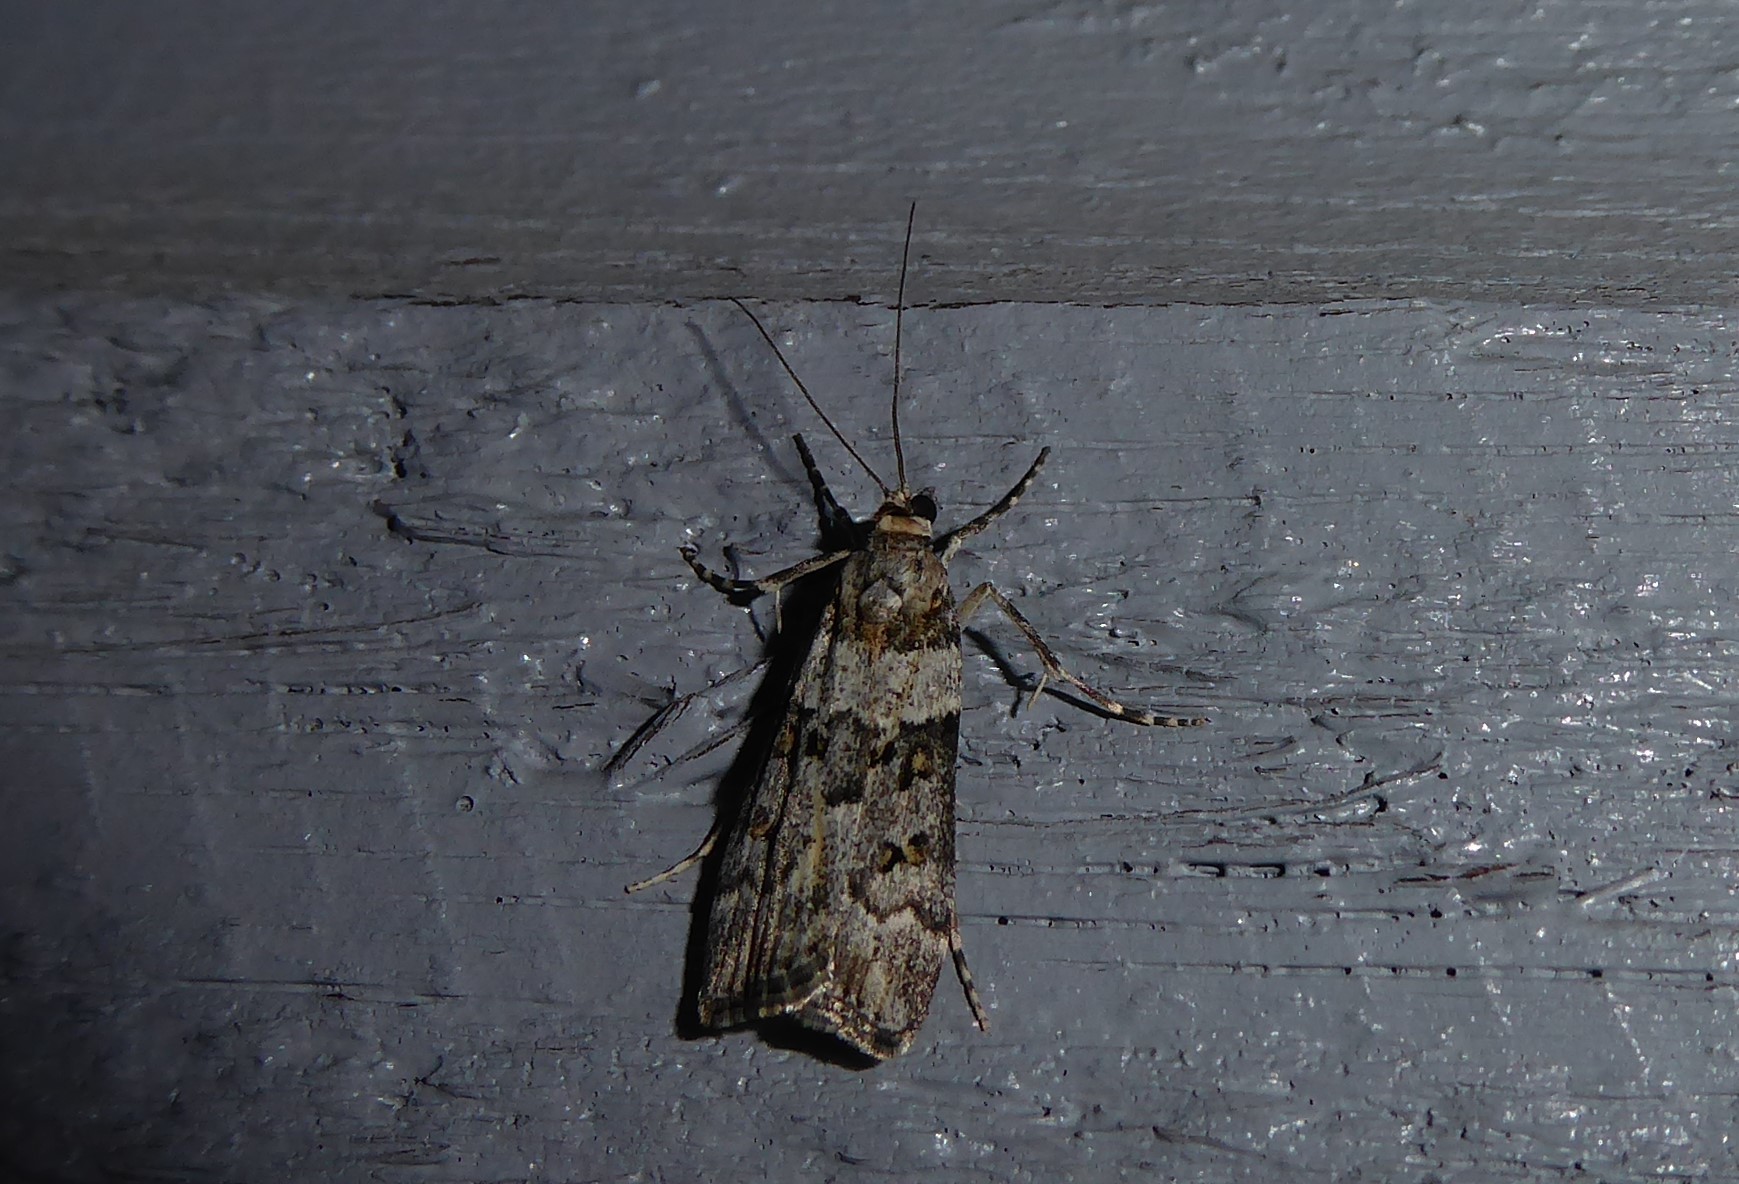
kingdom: Animalia
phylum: Arthropoda
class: Insecta
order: Lepidoptera
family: Crambidae
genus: Eudonia
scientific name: Eudonia diphtheralis
